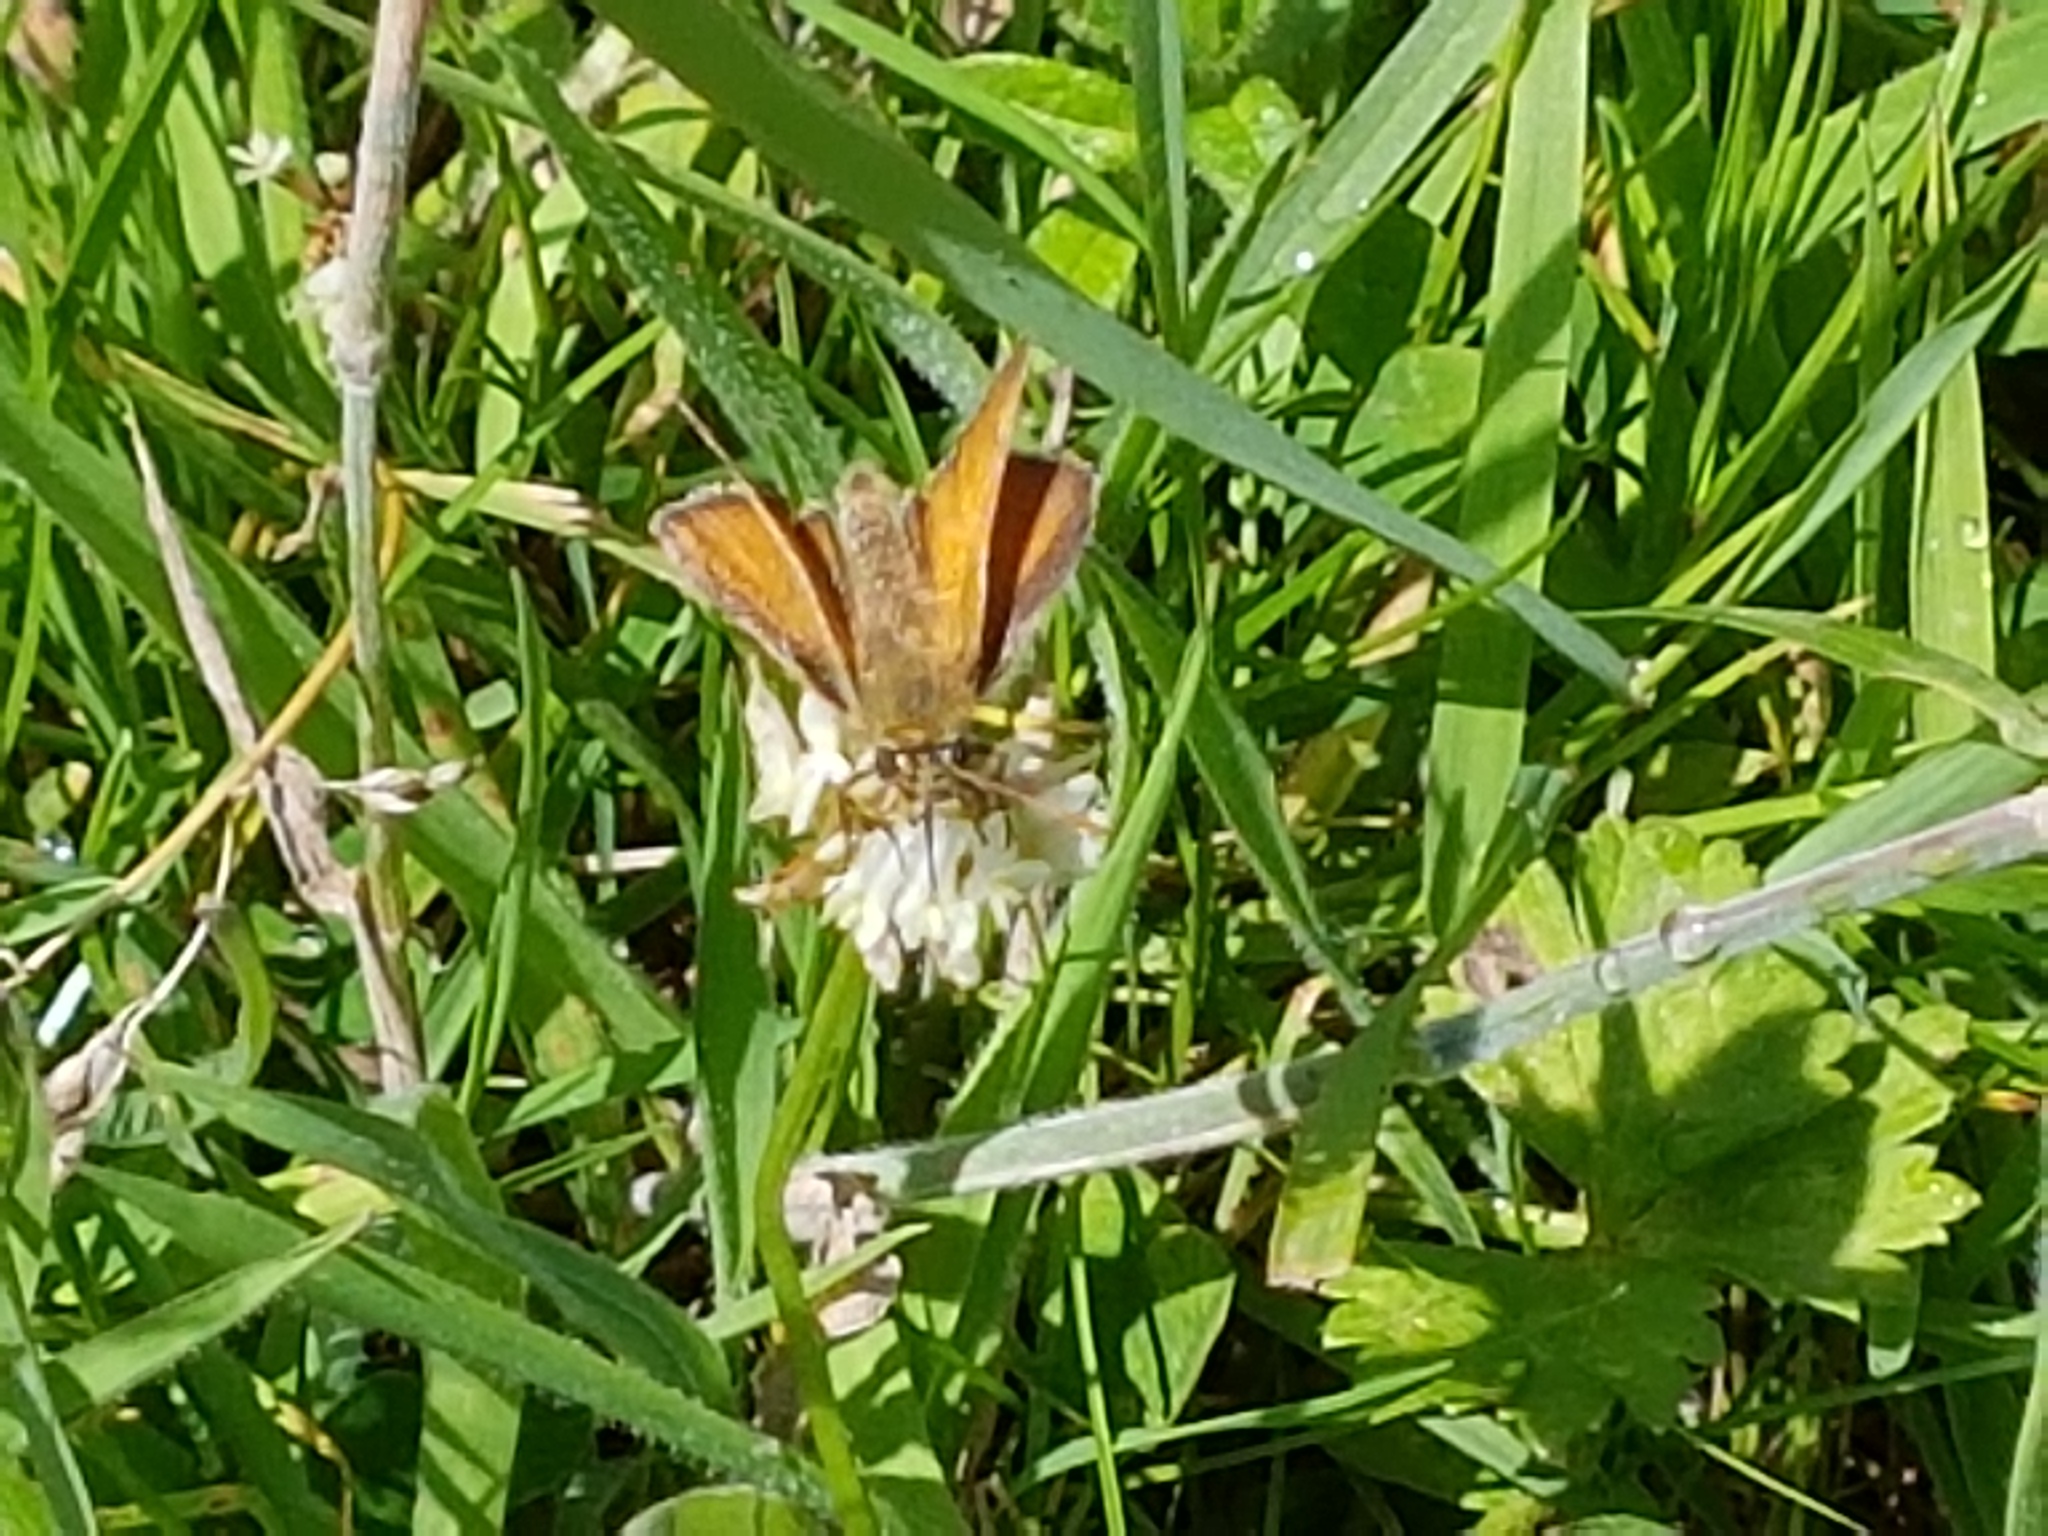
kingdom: Animalia
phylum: Arthropoda
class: Insecta
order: Lepidoptera
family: Hesperiidae
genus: Thymelicus
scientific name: Thymelicus sylvestris
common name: Small skipper
